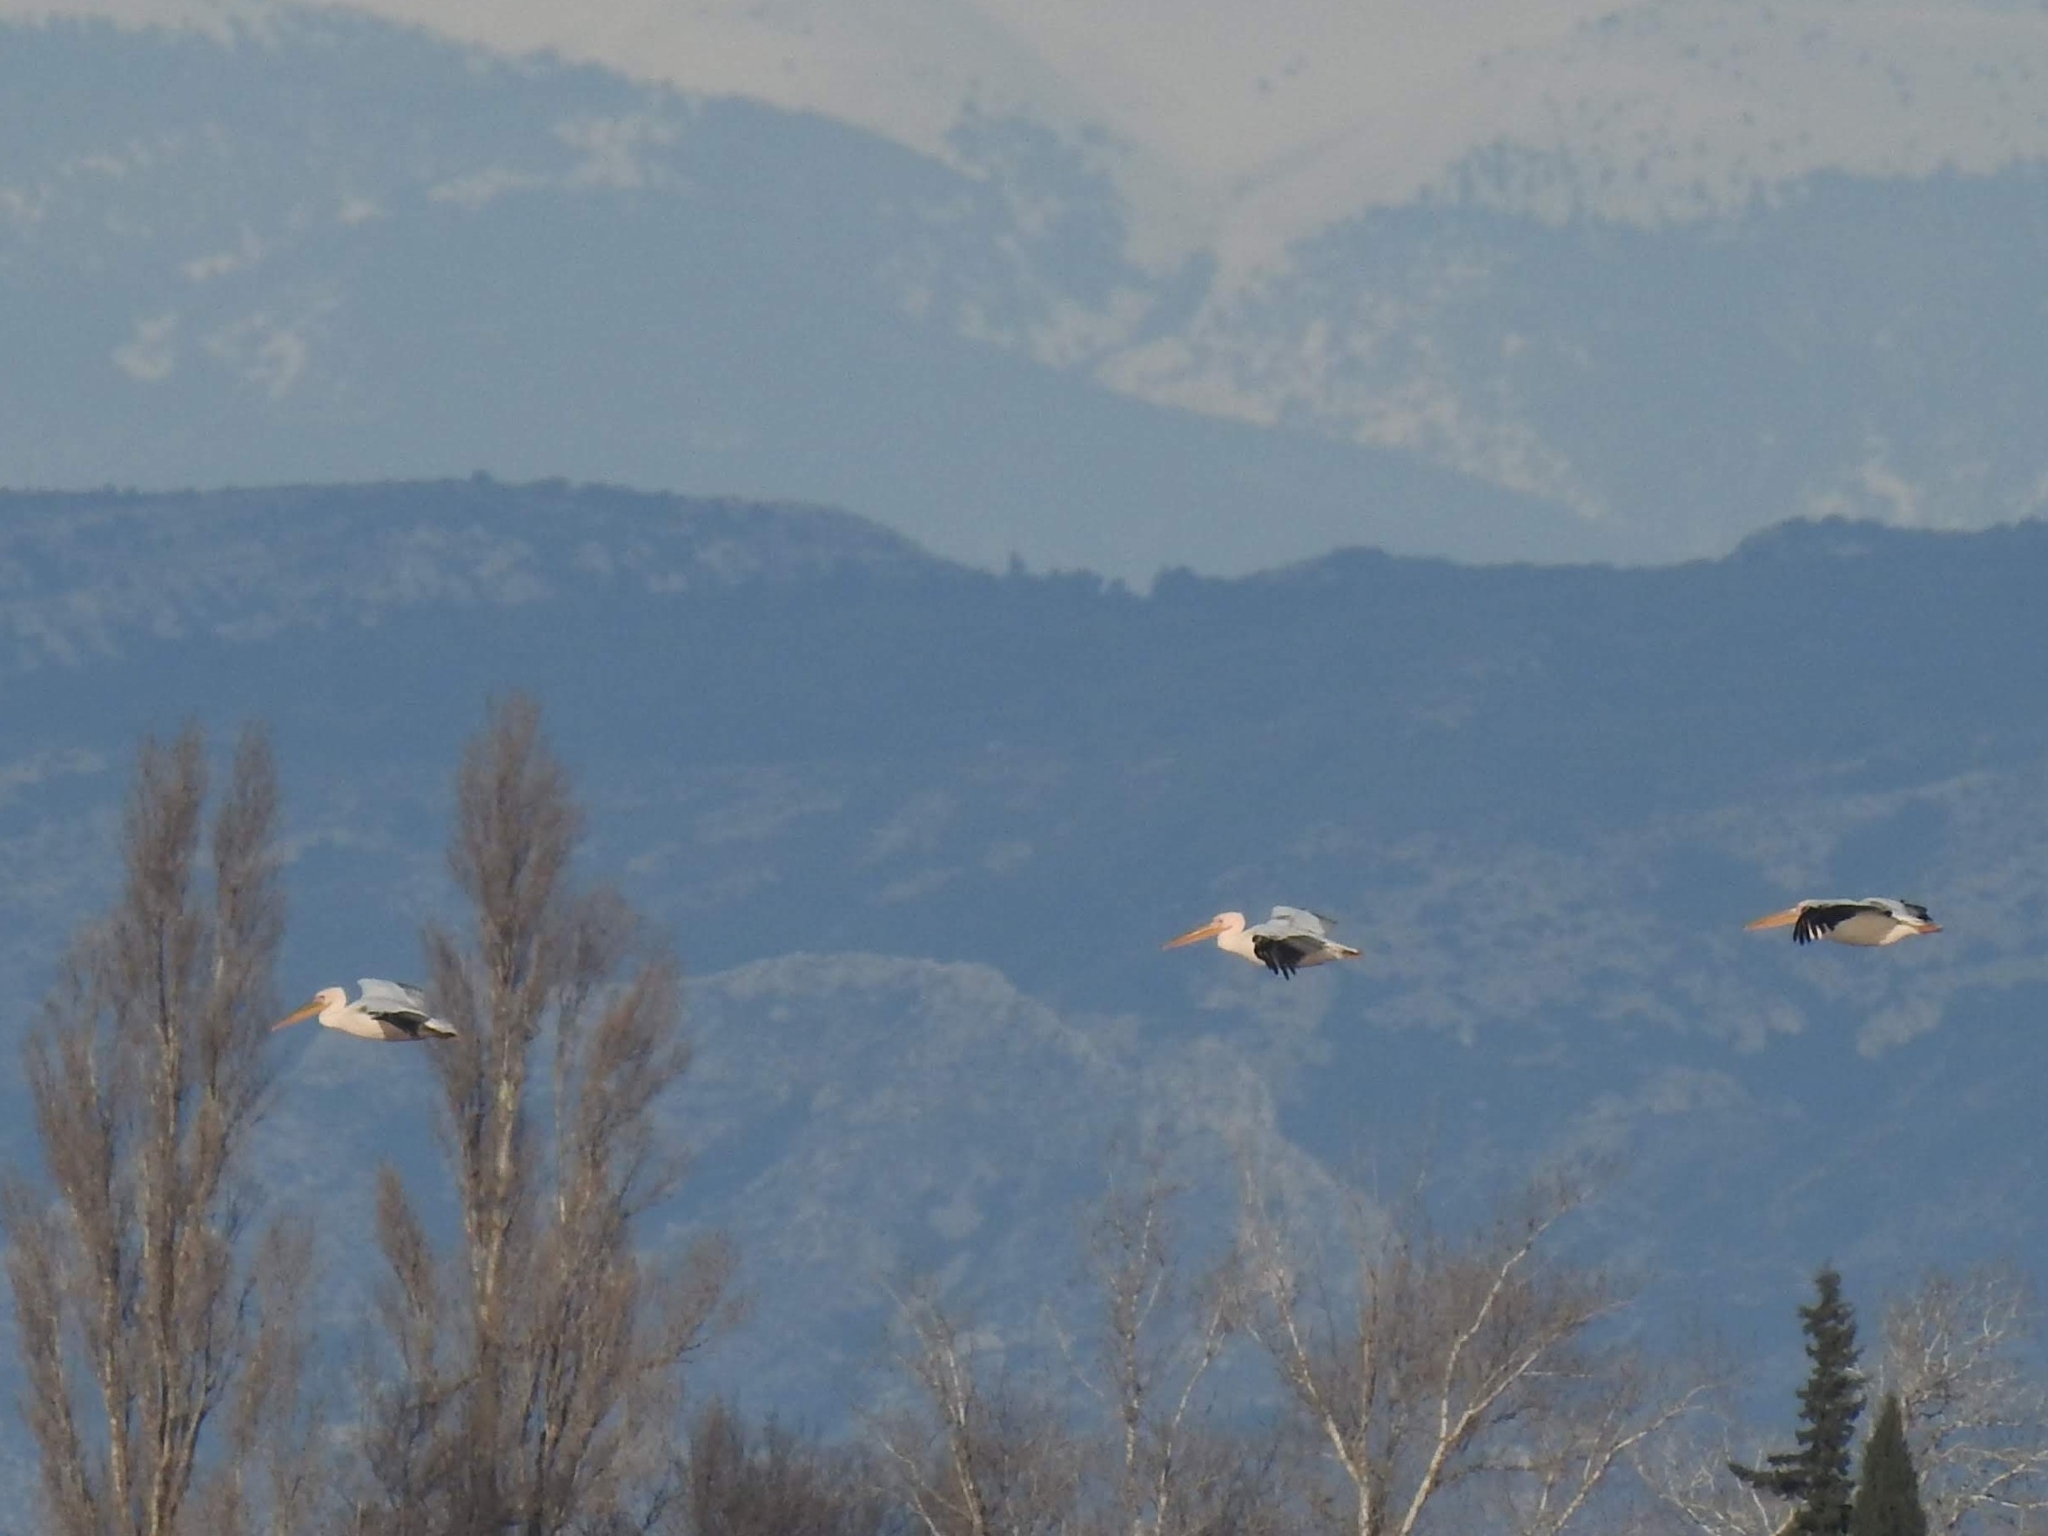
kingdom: Animalia
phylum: Chordata
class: Aves
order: Pelecaniformes
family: Pelecanidae
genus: Pelecanus
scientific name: Pelecanus onocrotalus
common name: Great white pelican
